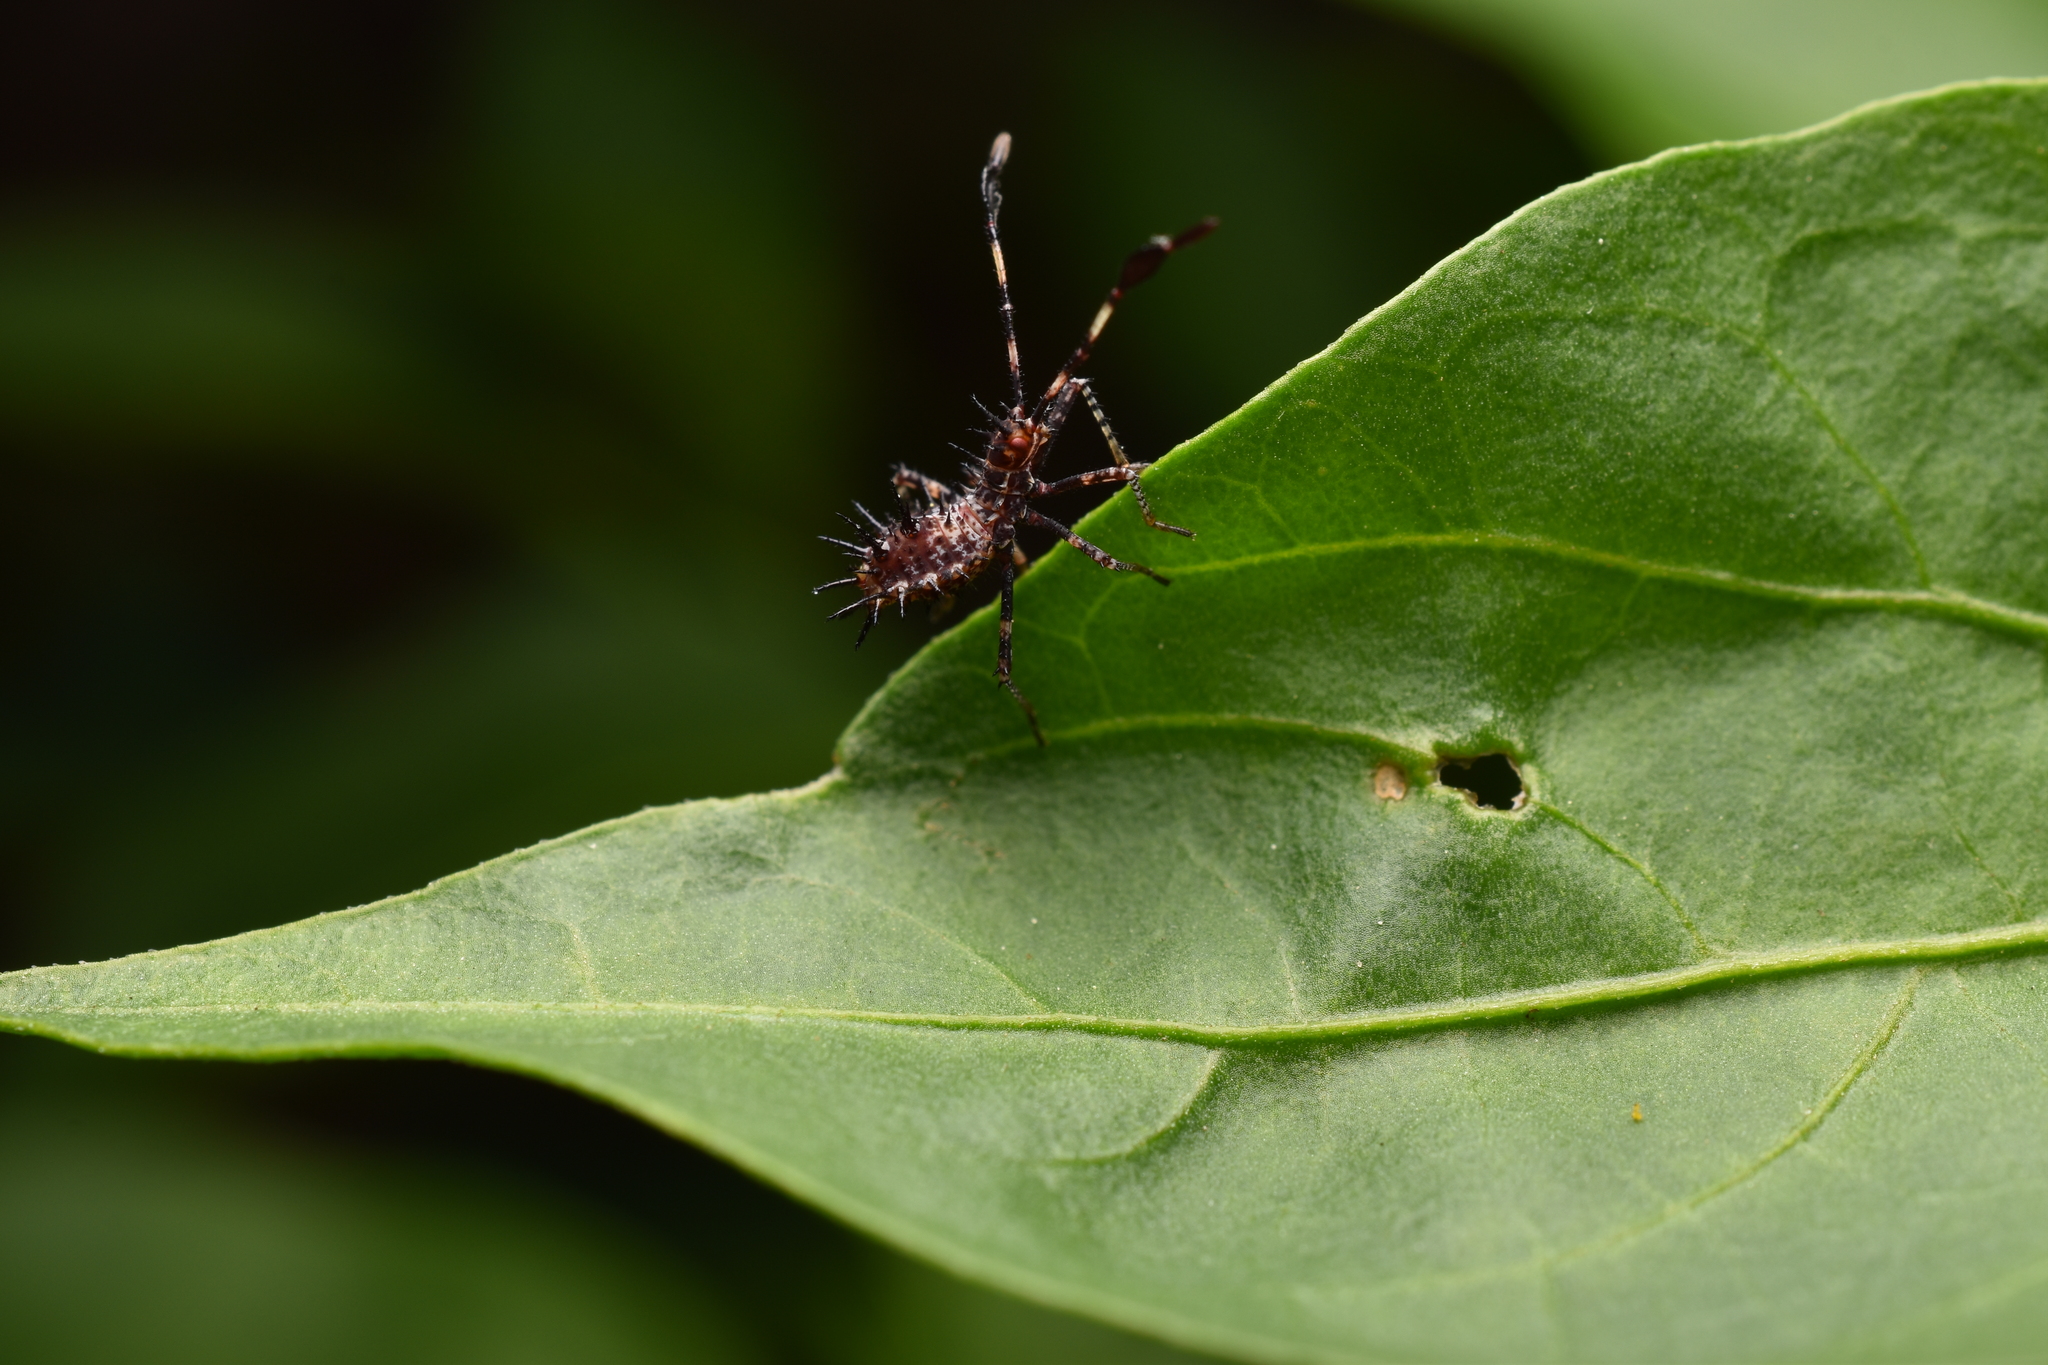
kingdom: Animalia
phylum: Arthropoda
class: Insecta
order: Hemiptera
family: Coreidae
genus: Euthochtha
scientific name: Euthochtha galeator
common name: Helmeted squash bug
